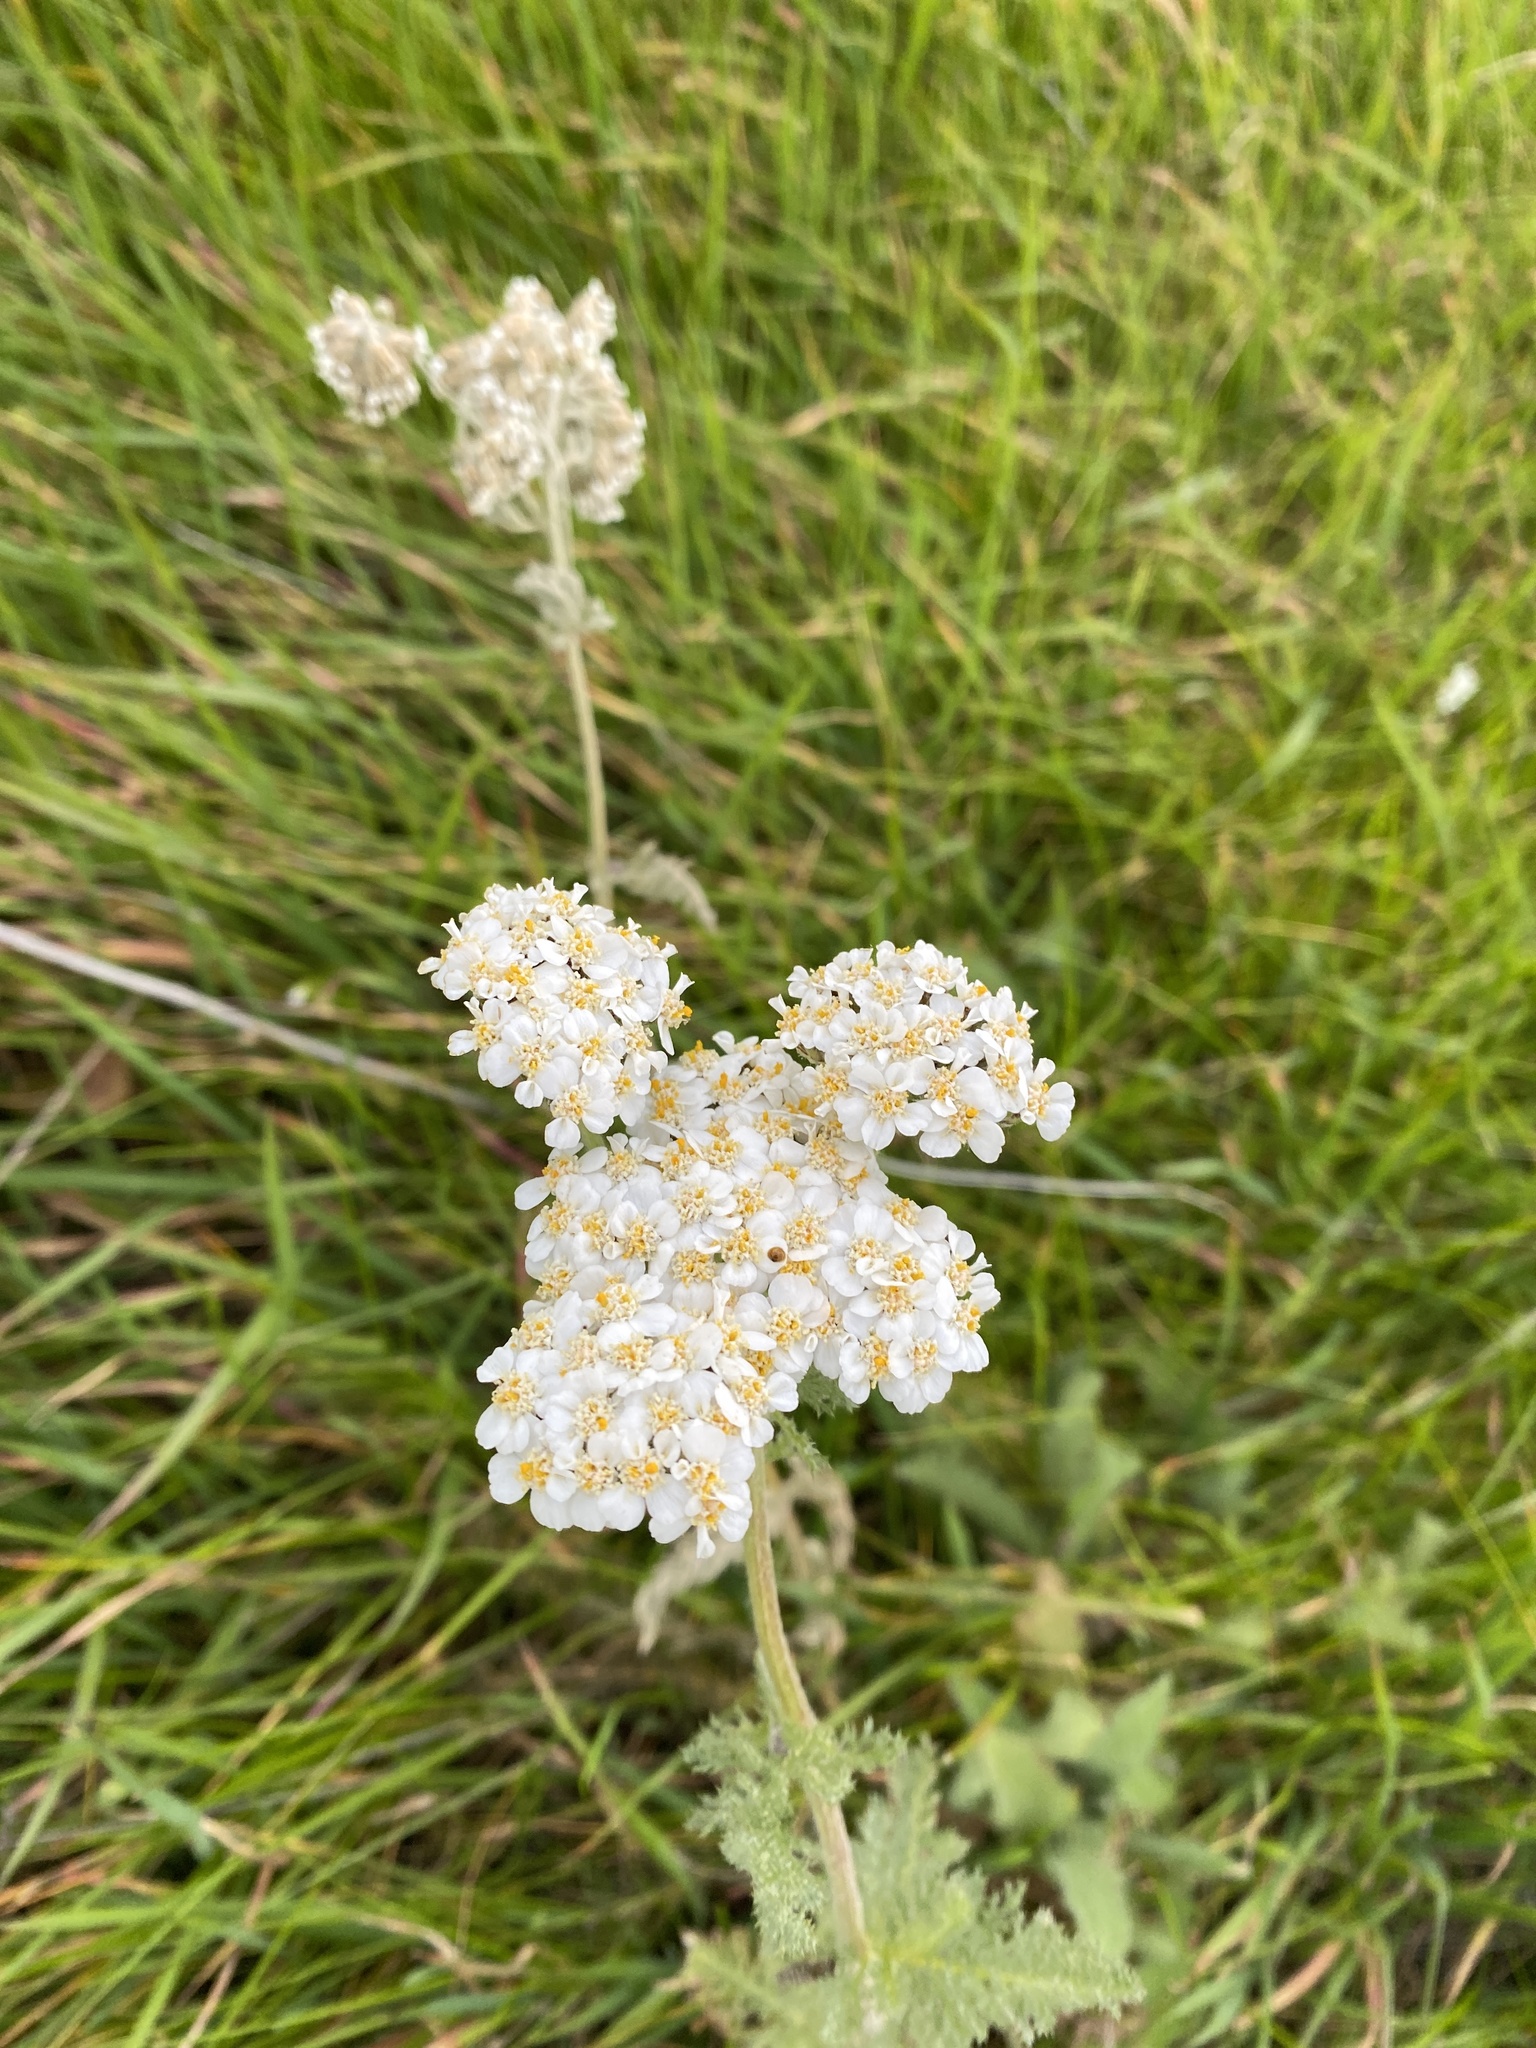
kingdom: Plantae
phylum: Tracheophyta
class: Magnoliopsida
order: Asterales
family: Asteraceae
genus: Achillea
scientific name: Achillea millefolium
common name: Yarrow
